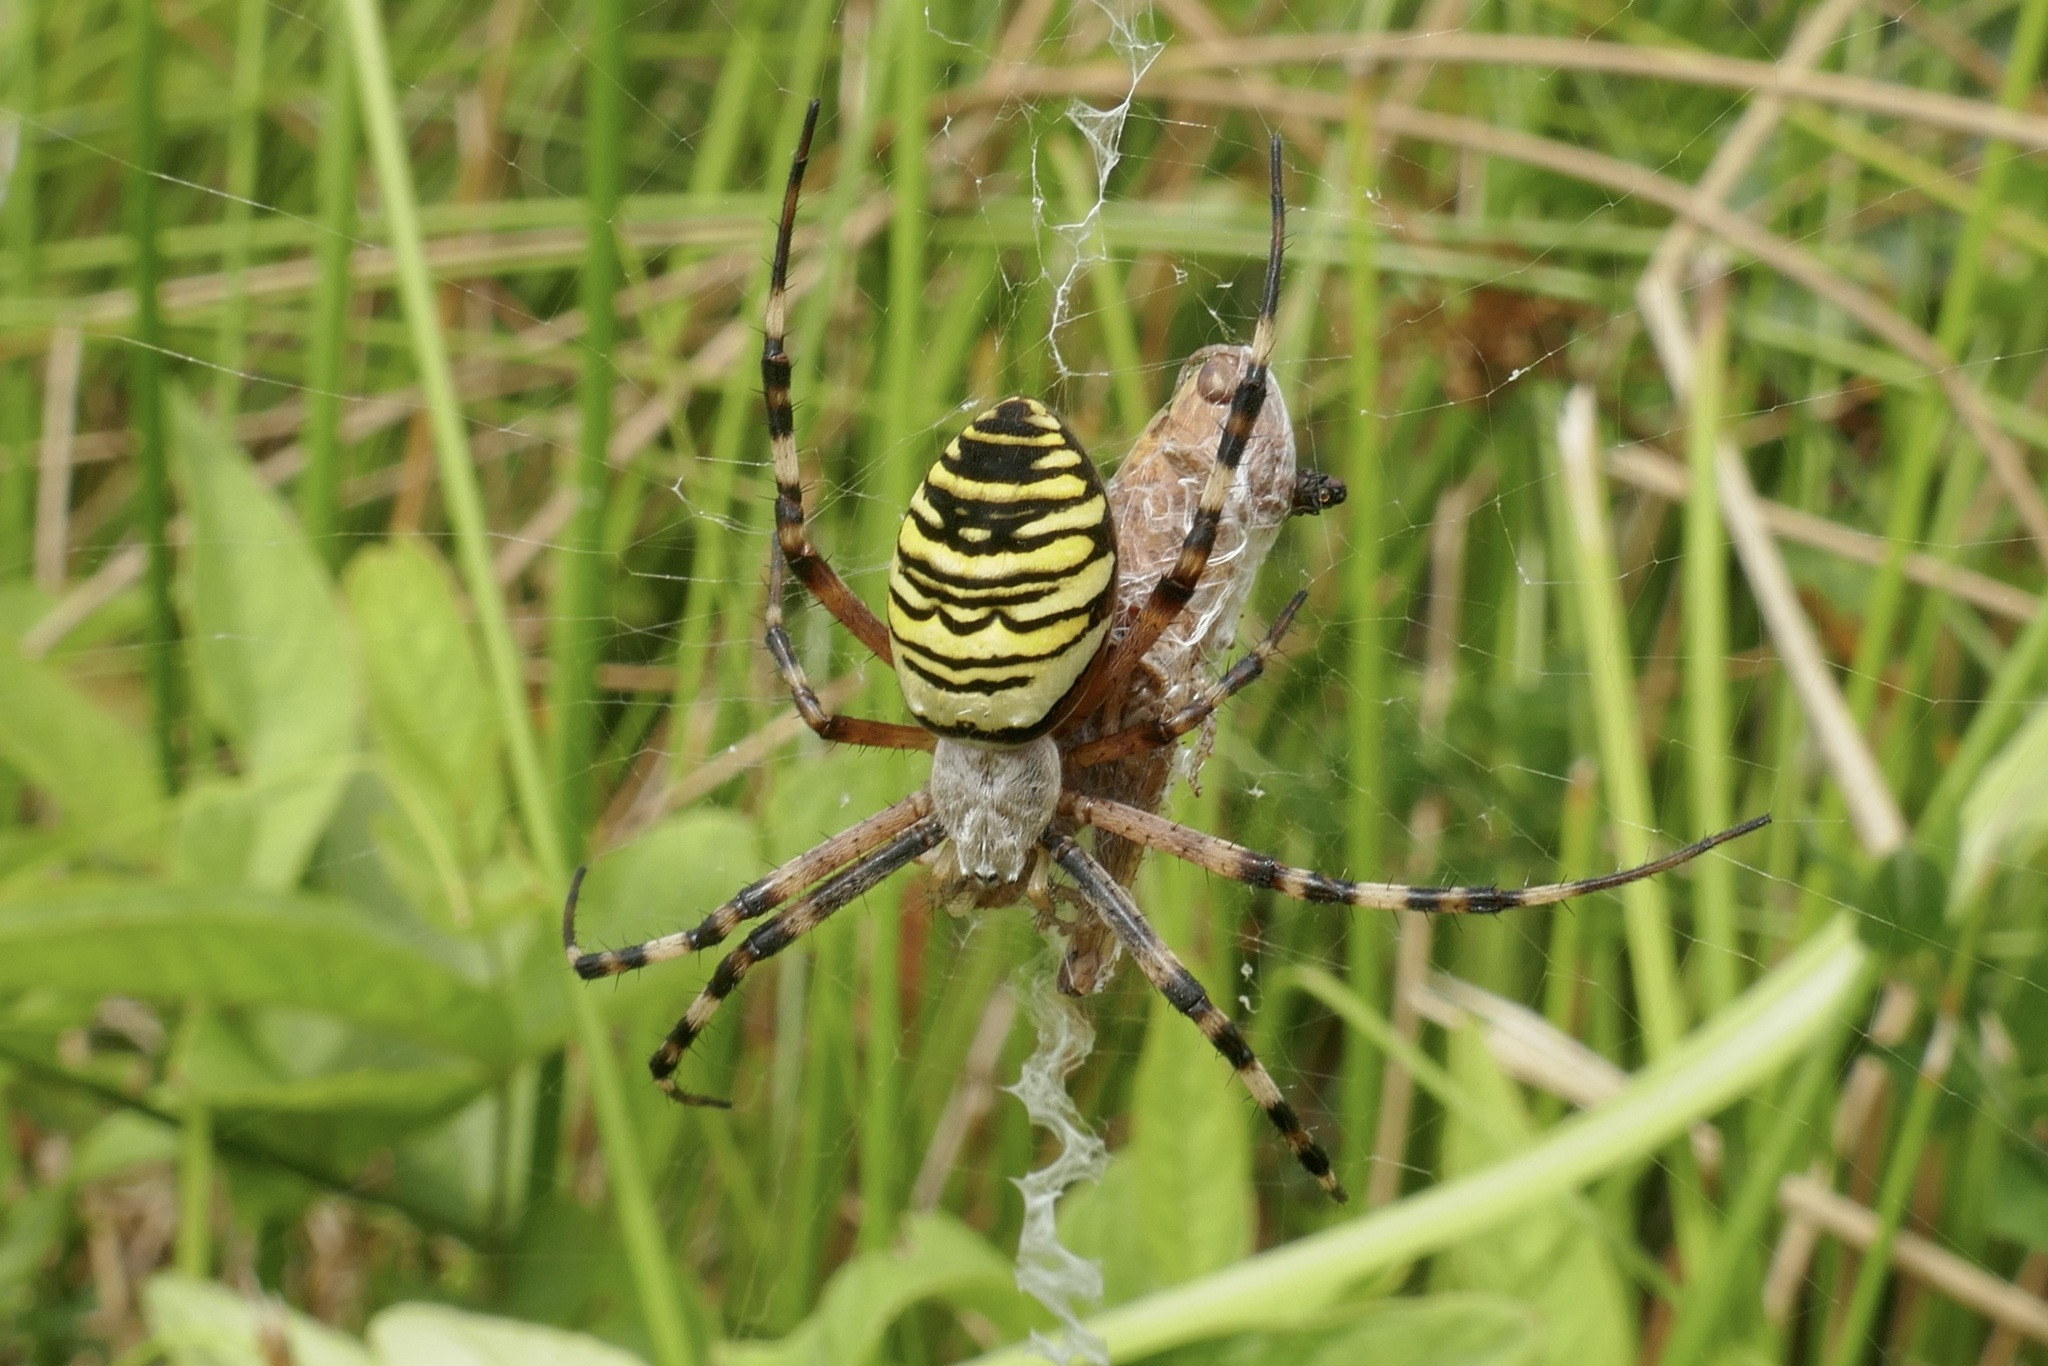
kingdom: Animalia
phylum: Arthropoda
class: Arachnida
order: Araneae
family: Araneidae
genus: Argiope
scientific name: Argiope bruennichi
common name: Wasp spider
